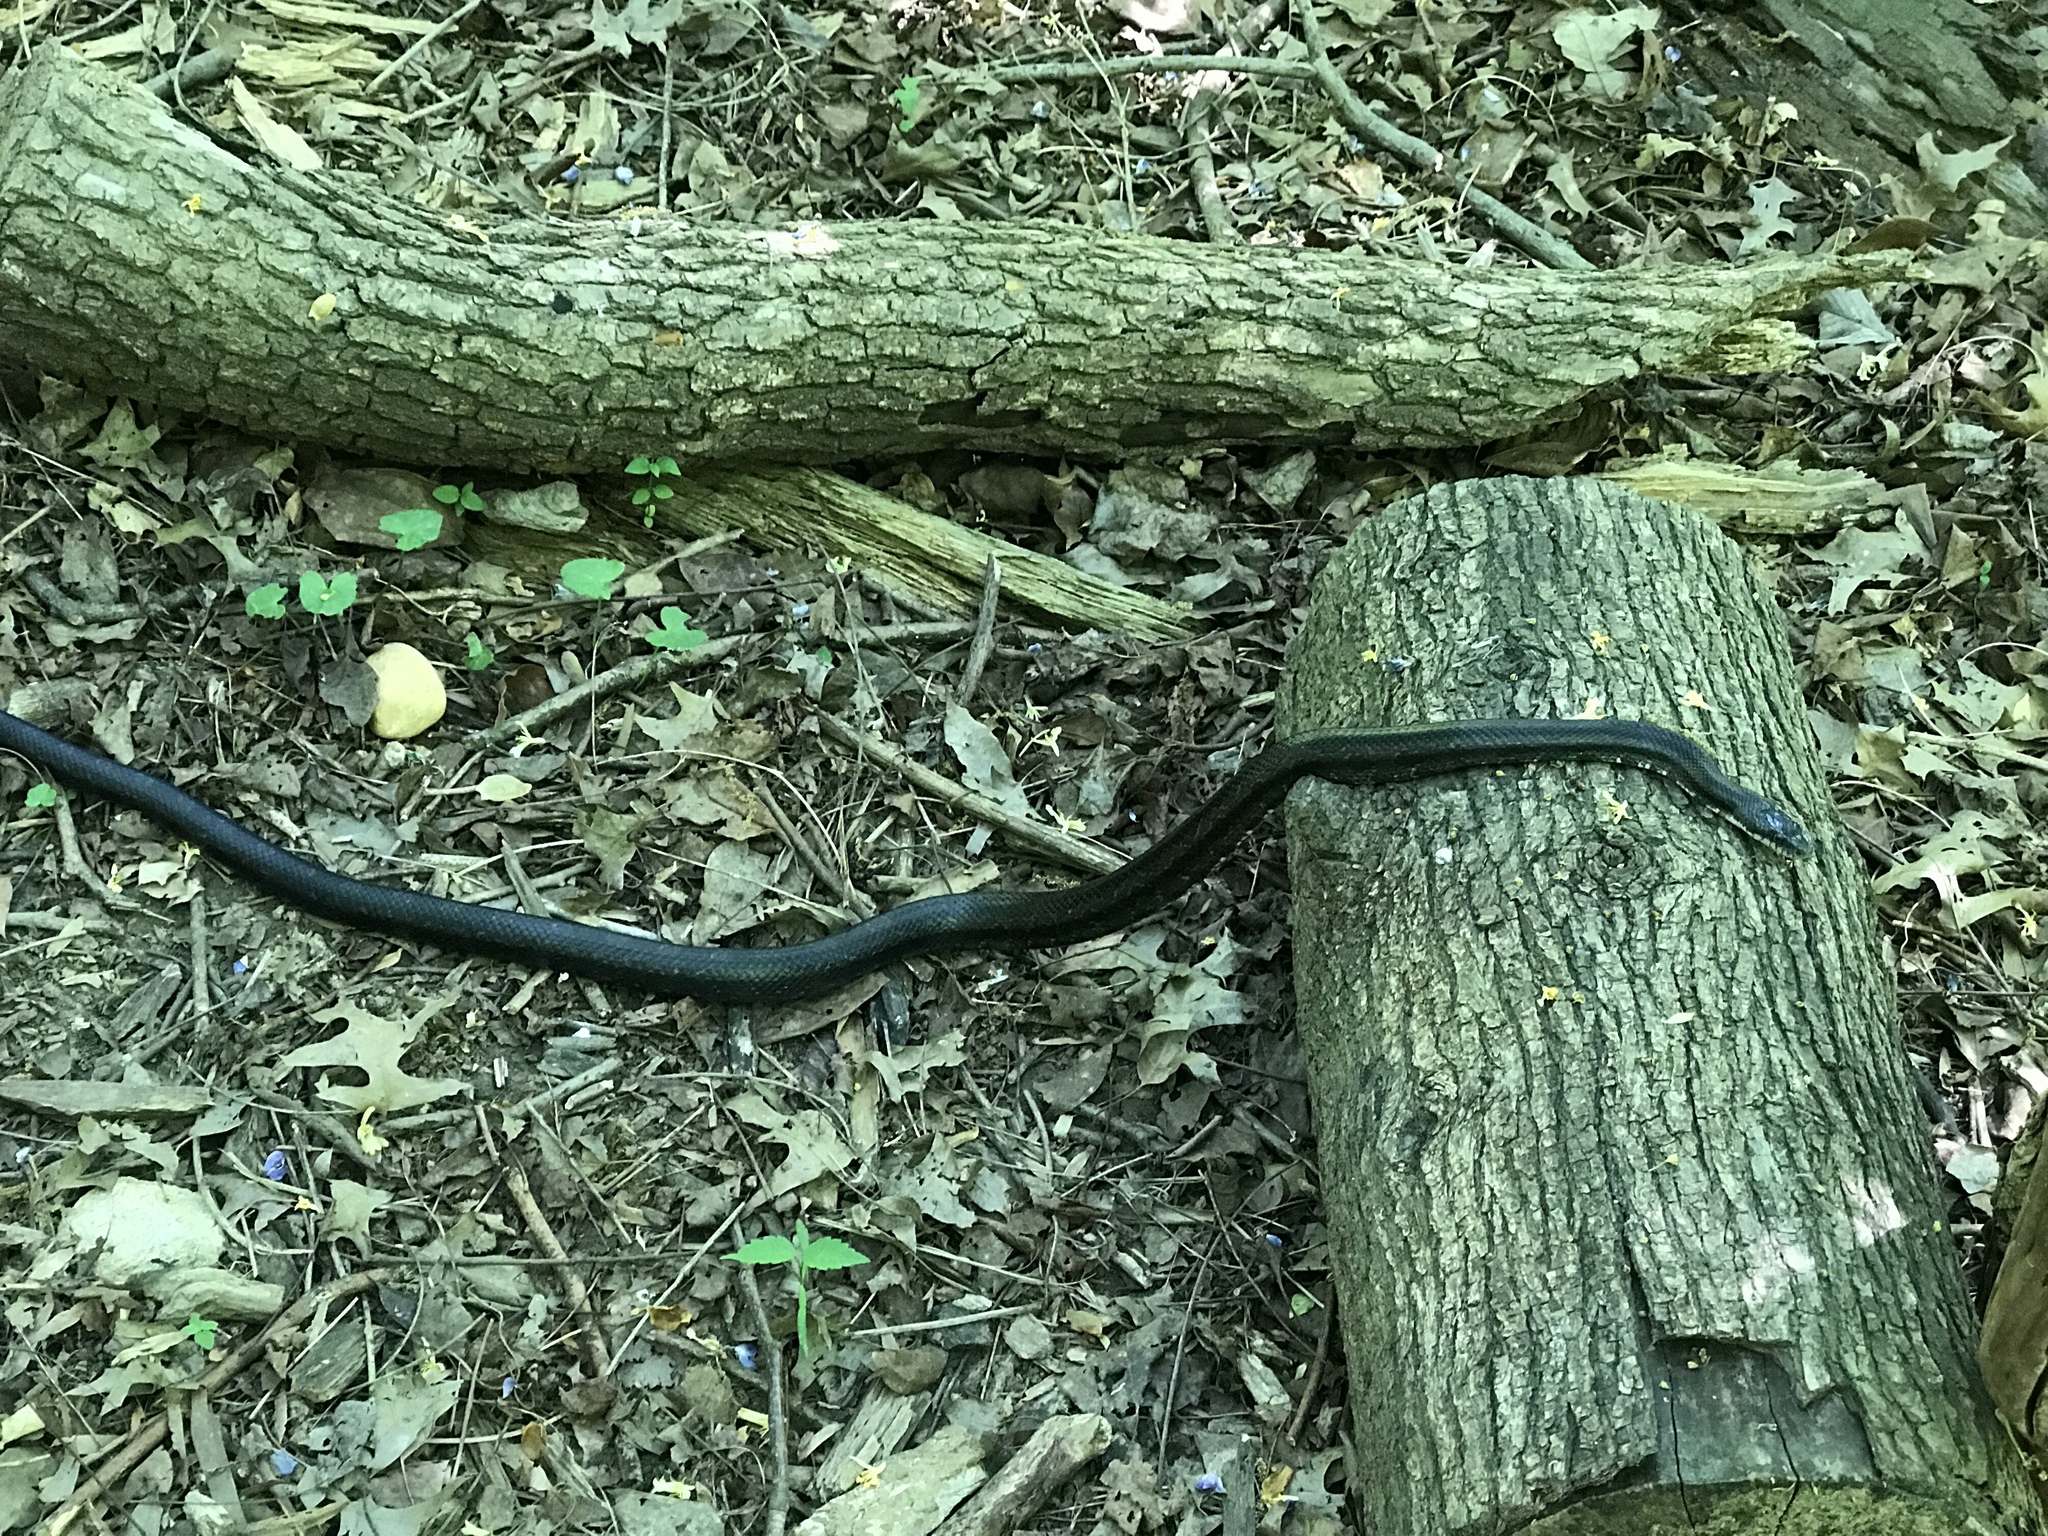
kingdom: Animalia
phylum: Chordata
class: Squamata
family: Colubridae
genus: Pantherophis
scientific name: Pantherophis alleghaniensis
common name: Eastern rat snake
